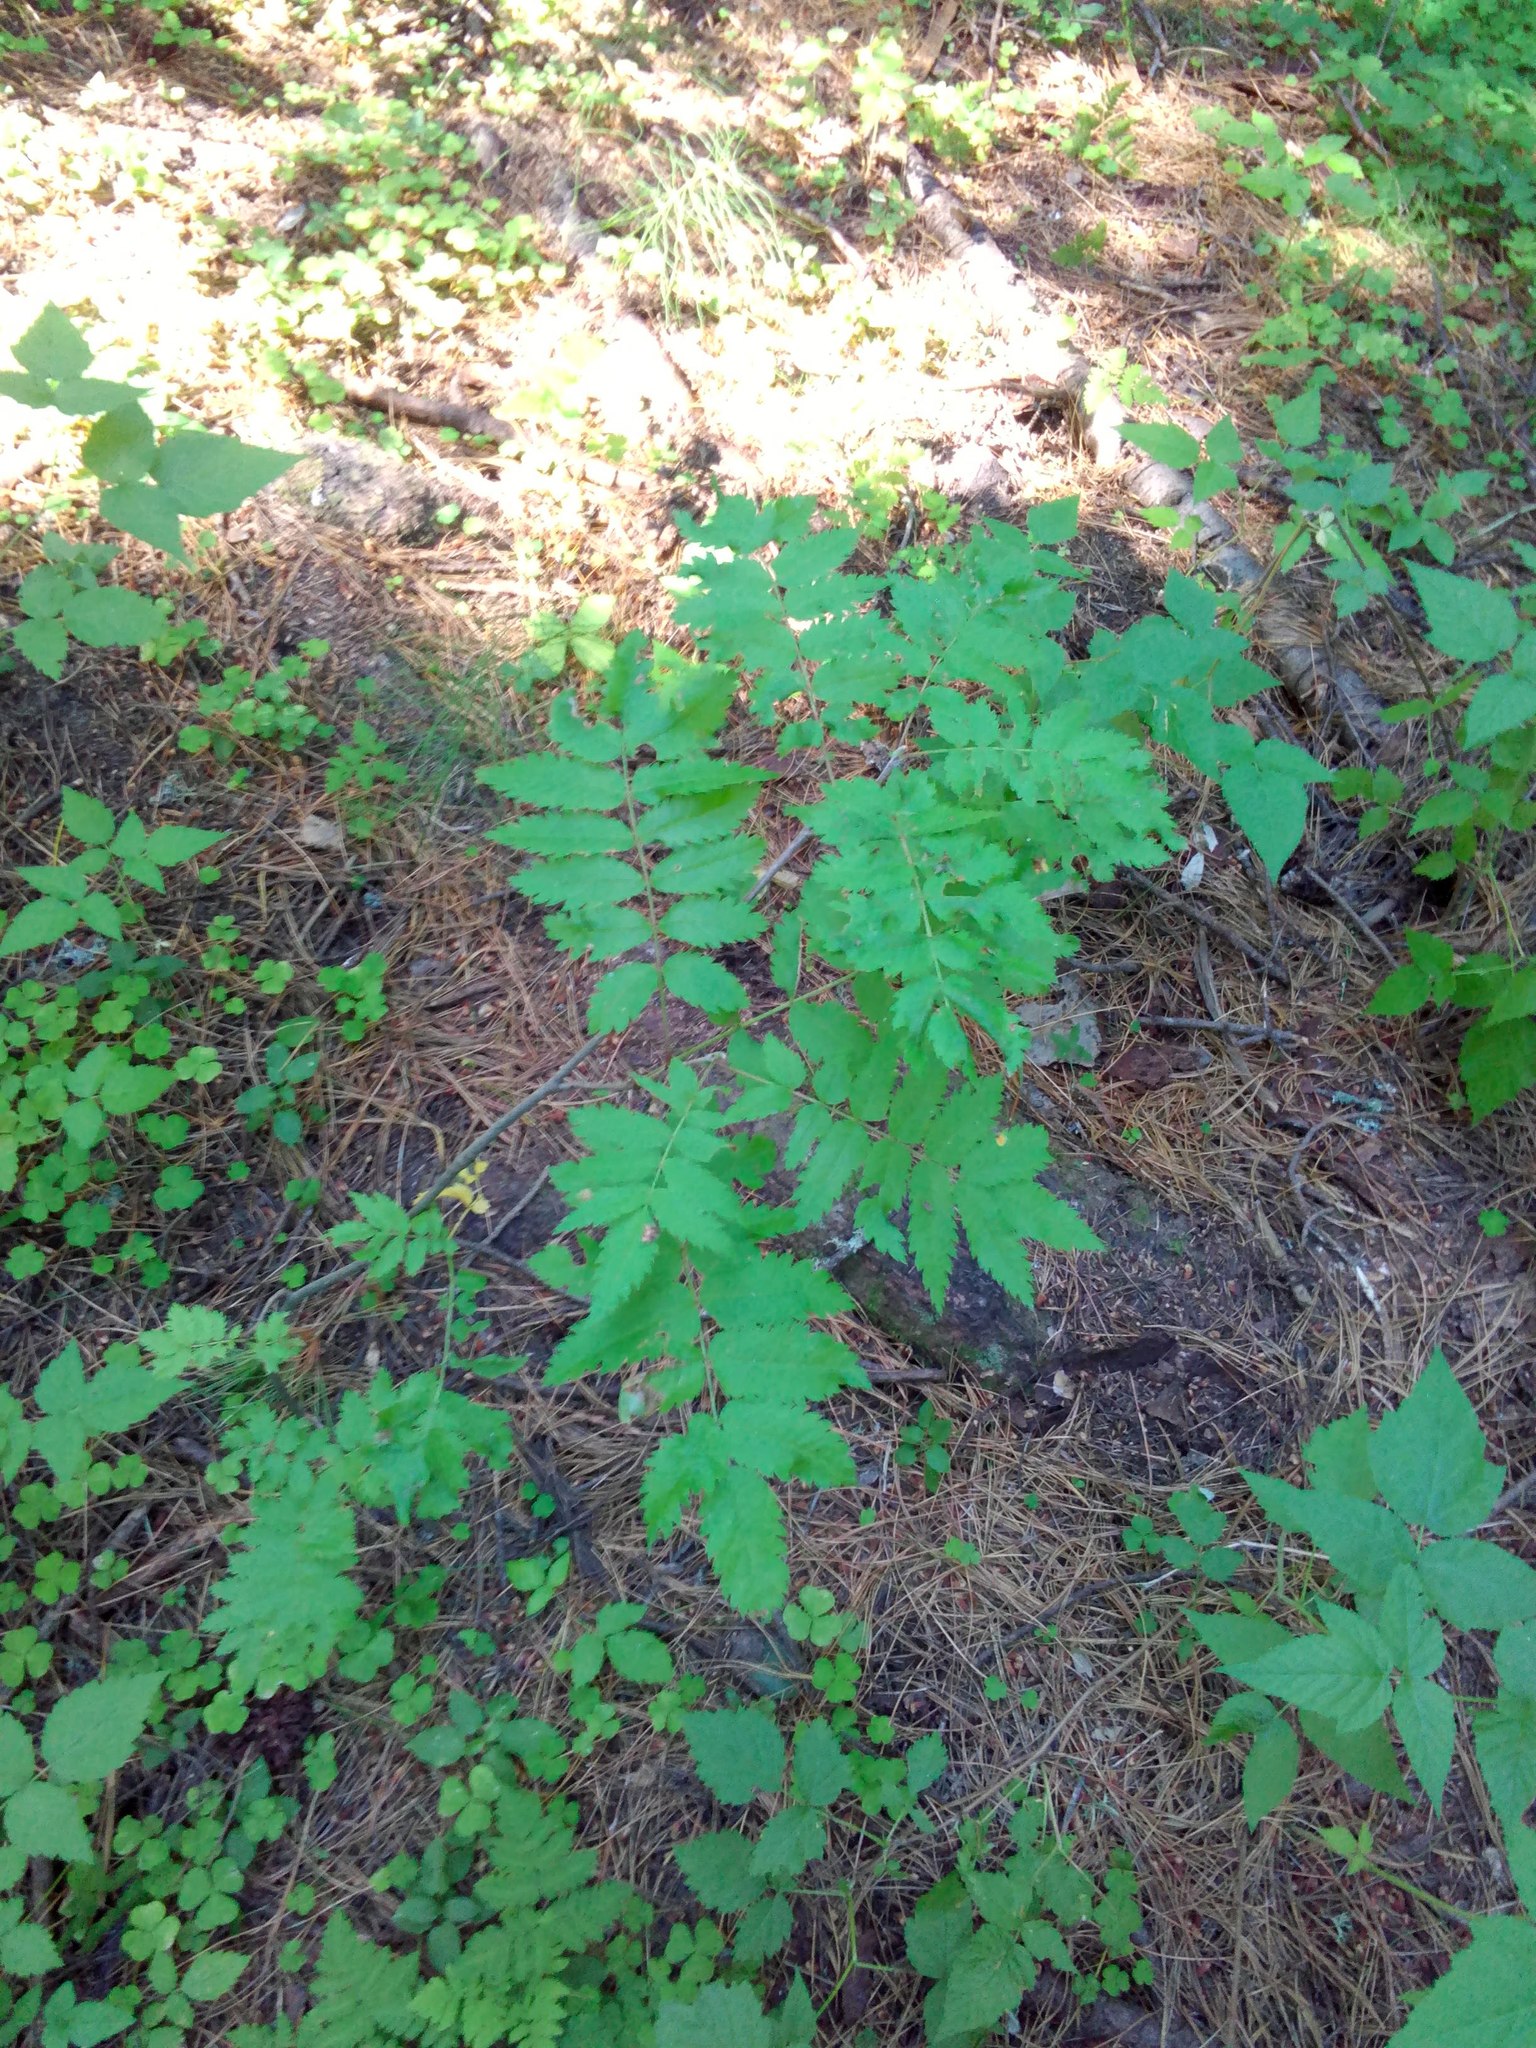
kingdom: Plantae
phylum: Tracheophyta
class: Magnoliopsida
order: Rosales
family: Rosaceae
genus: Sorbus
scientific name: Sorbus aucuparia
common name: Rowan
